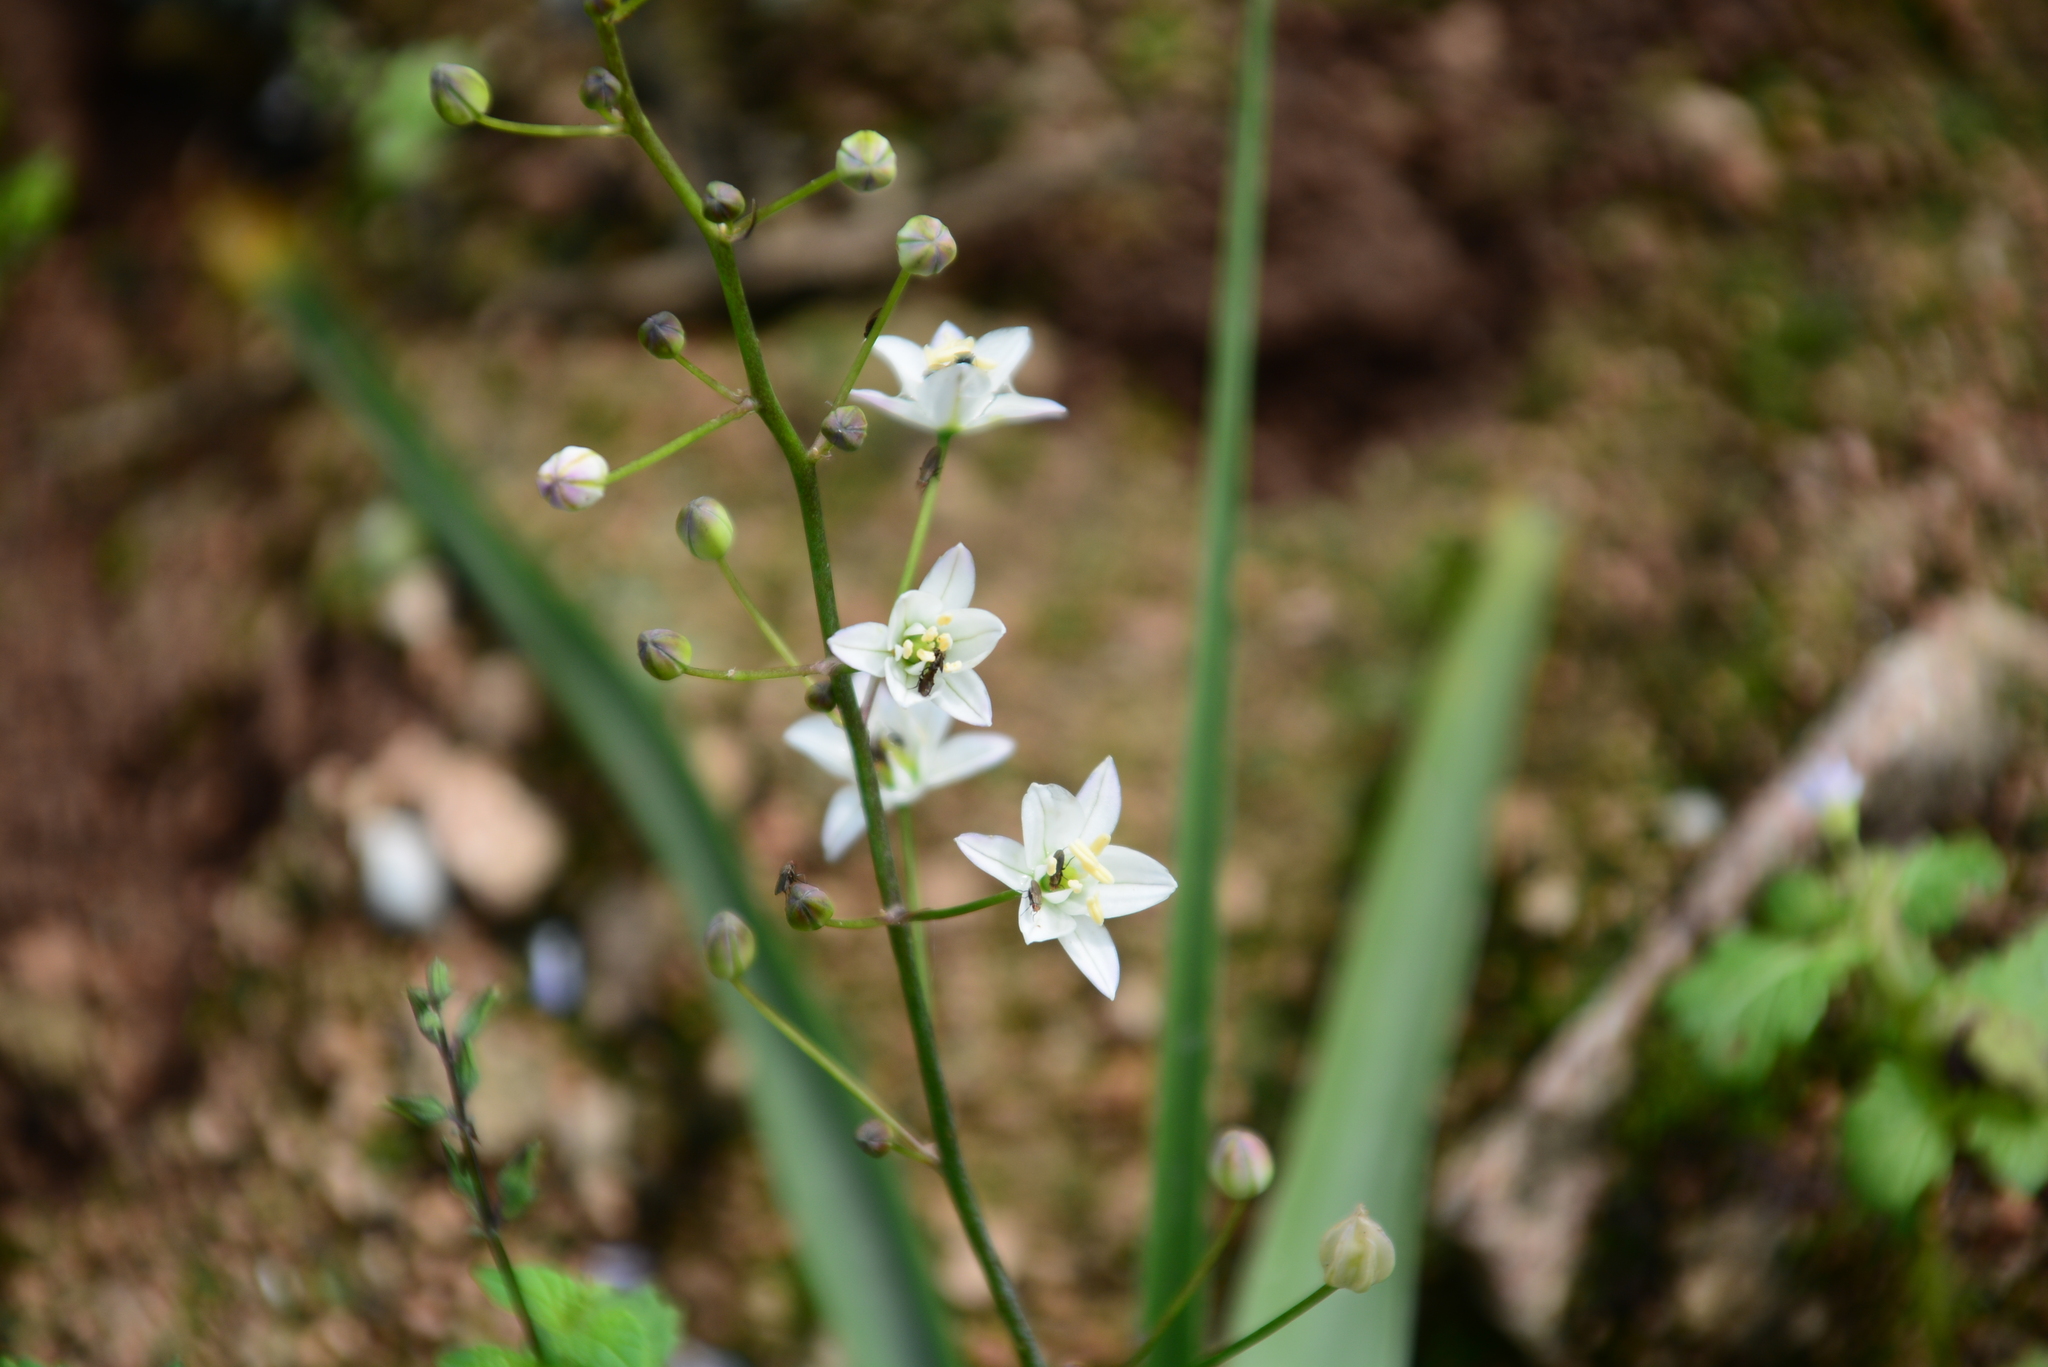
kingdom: Plantae
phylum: Tracheophyta
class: Liliopsida
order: Asparagales
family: Asparagaceae
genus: Oziroe
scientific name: Oziroe biflora
